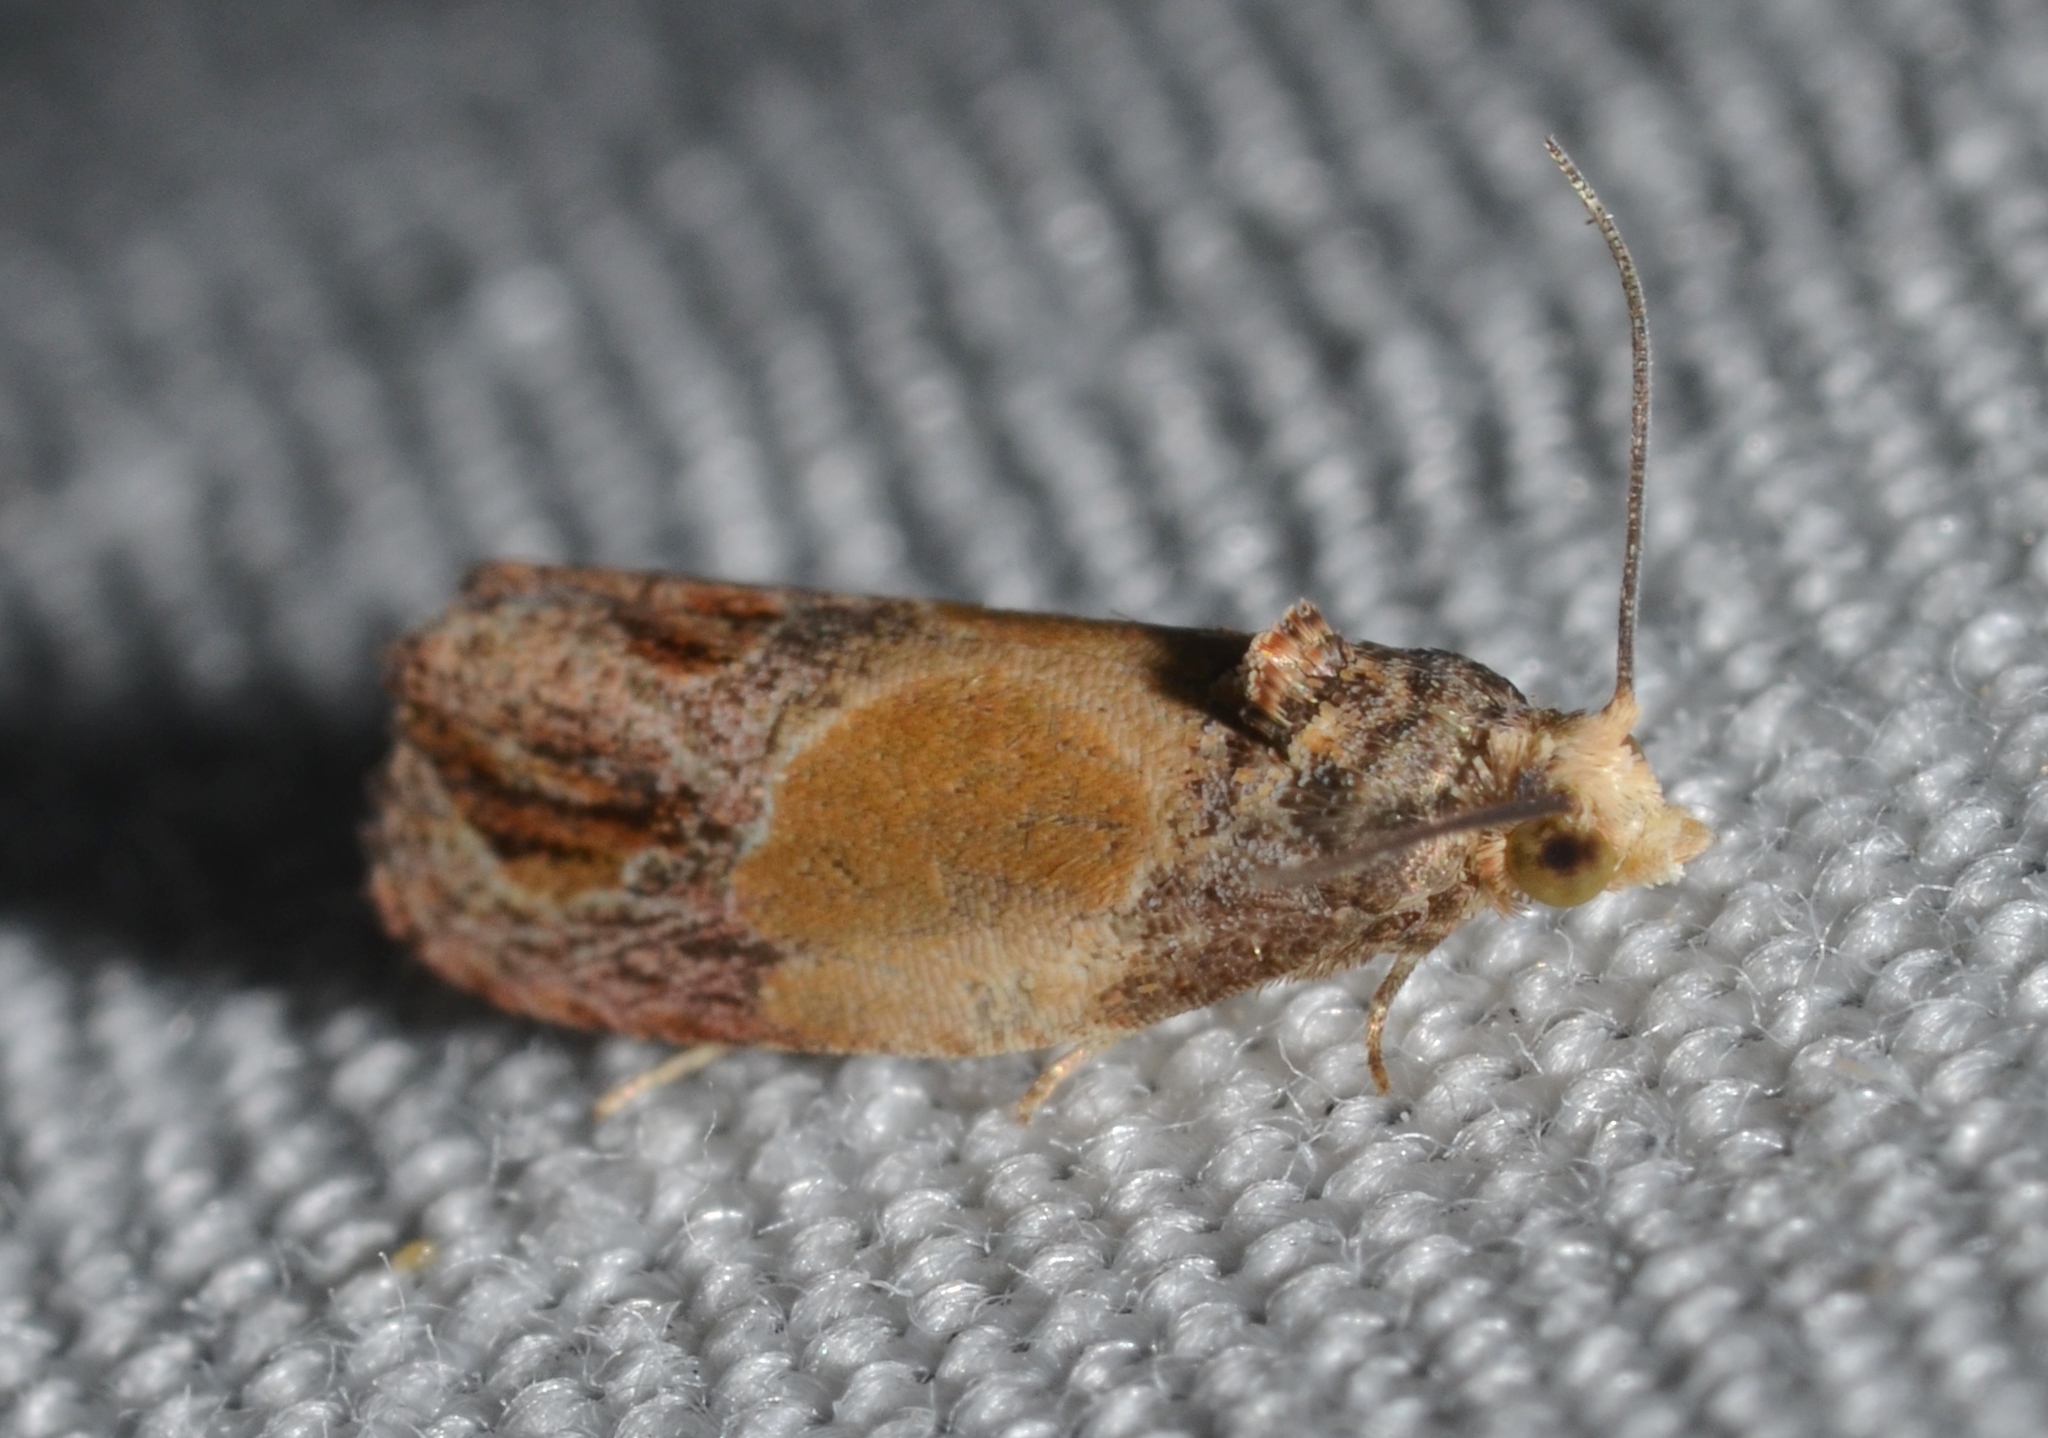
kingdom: Animalia
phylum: Arthropoda
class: Insecta
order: Lepidoptera
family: Tortricidae
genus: Eumarozia
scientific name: Eumarozia malachitana
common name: Sculptured moth
